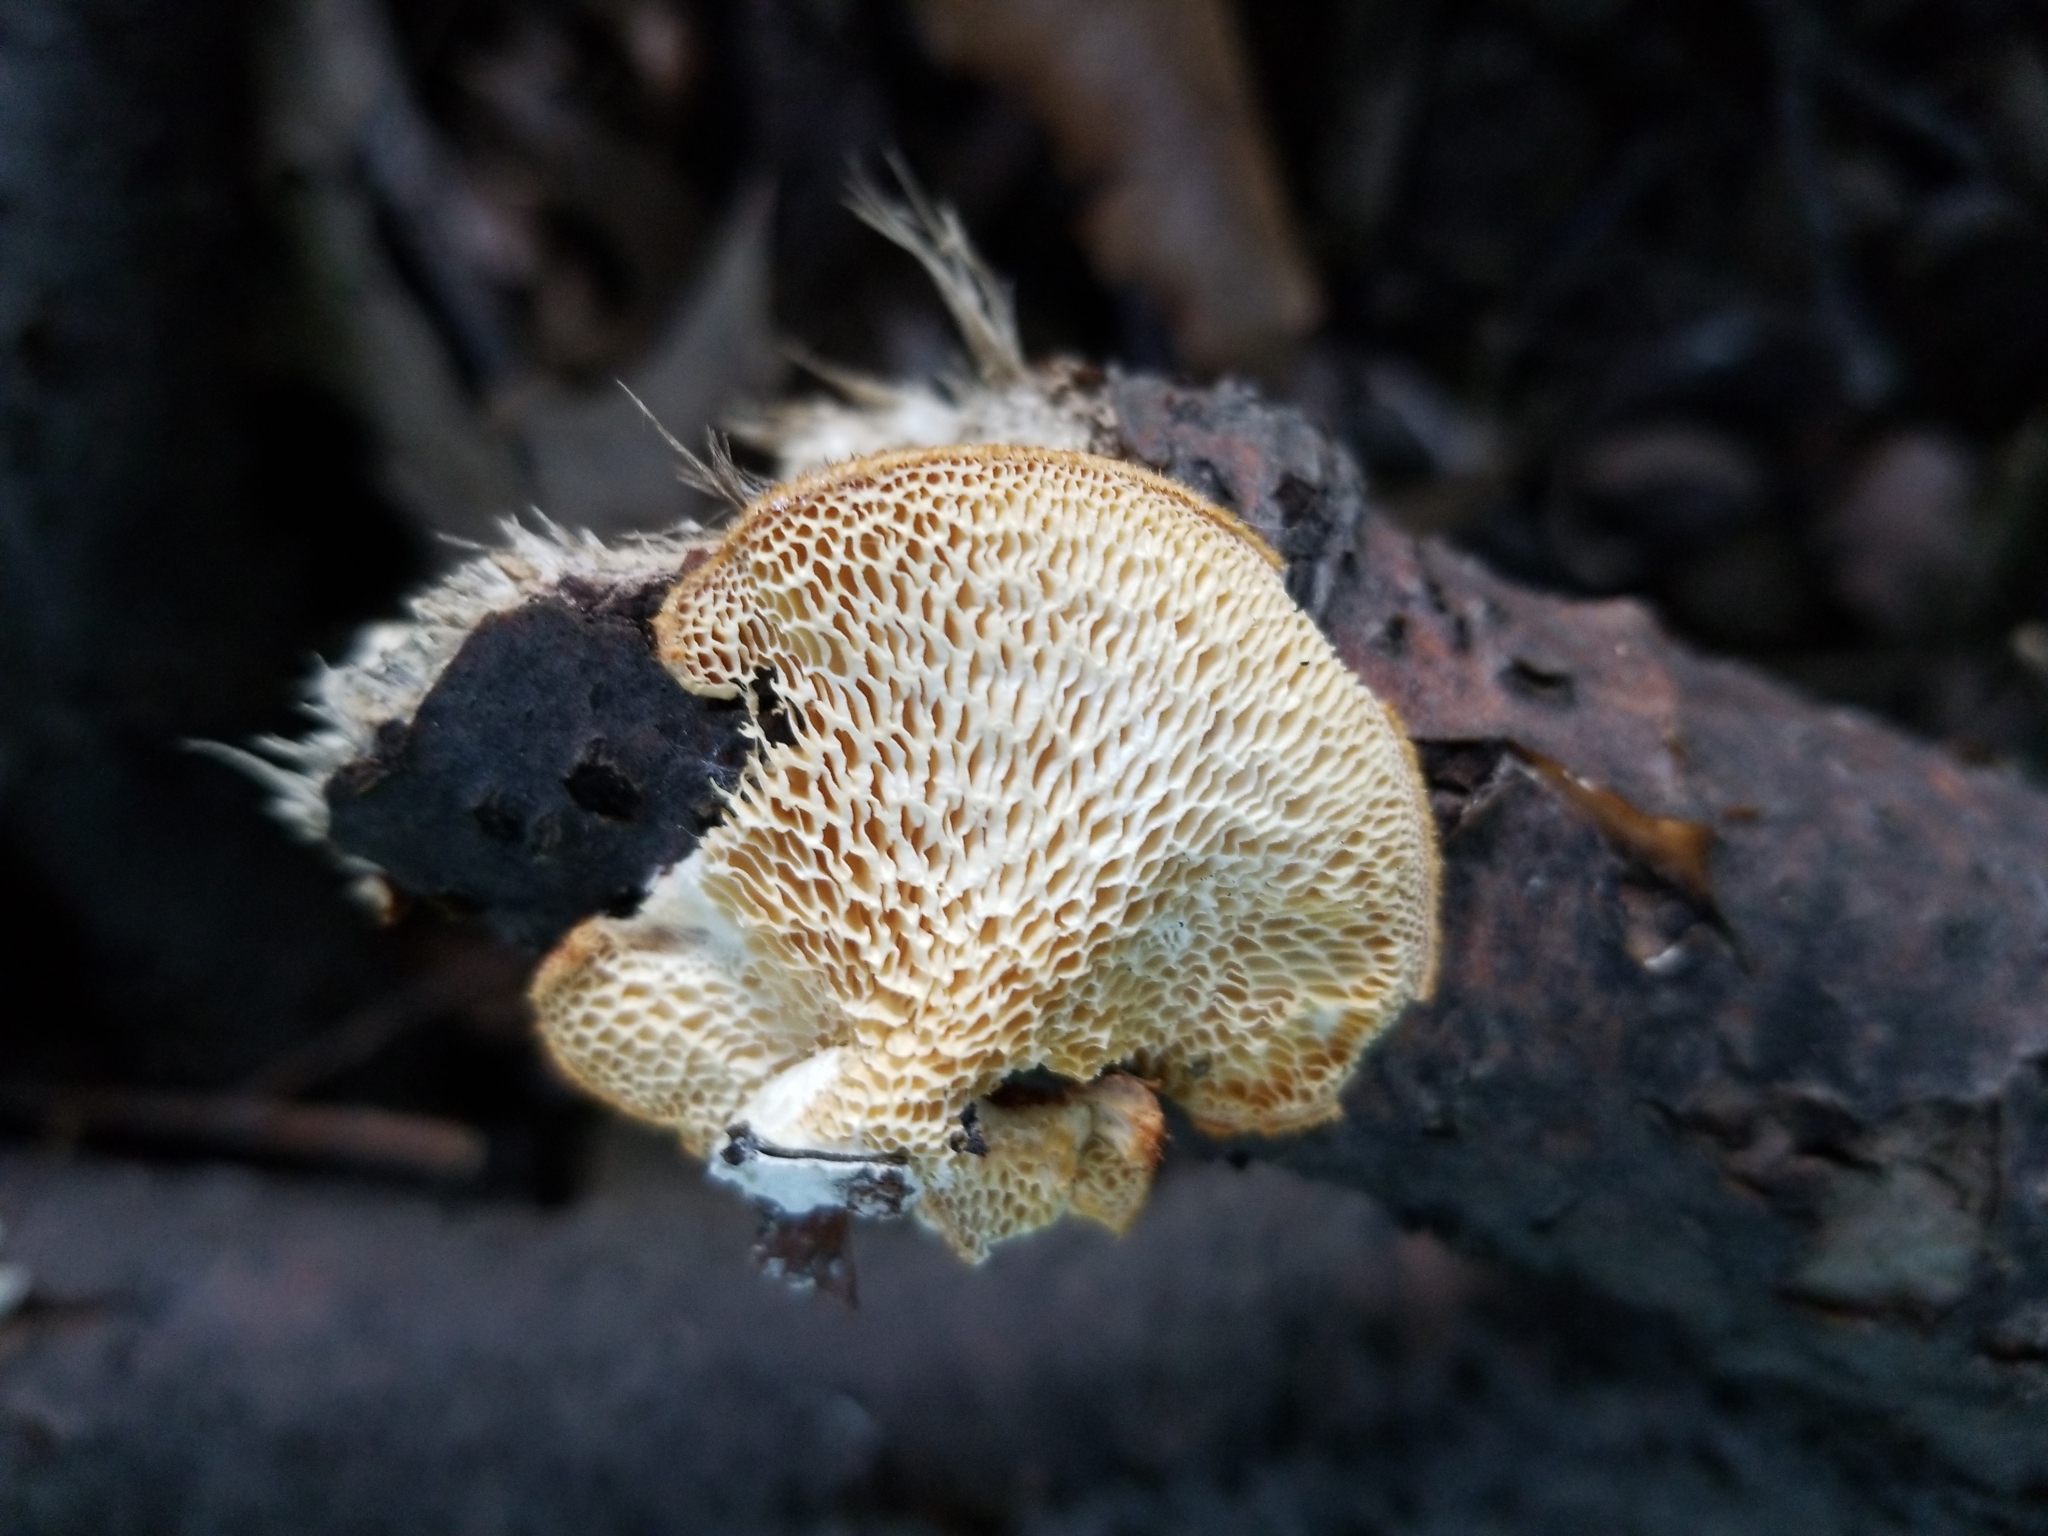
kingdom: Fungi
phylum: Basidiomycota
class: Agaricomycetes
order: Polyporales
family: Polyporaceae
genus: Neofavolus
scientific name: Neofavolus alveolaris
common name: Hexagonal-pored polypore
